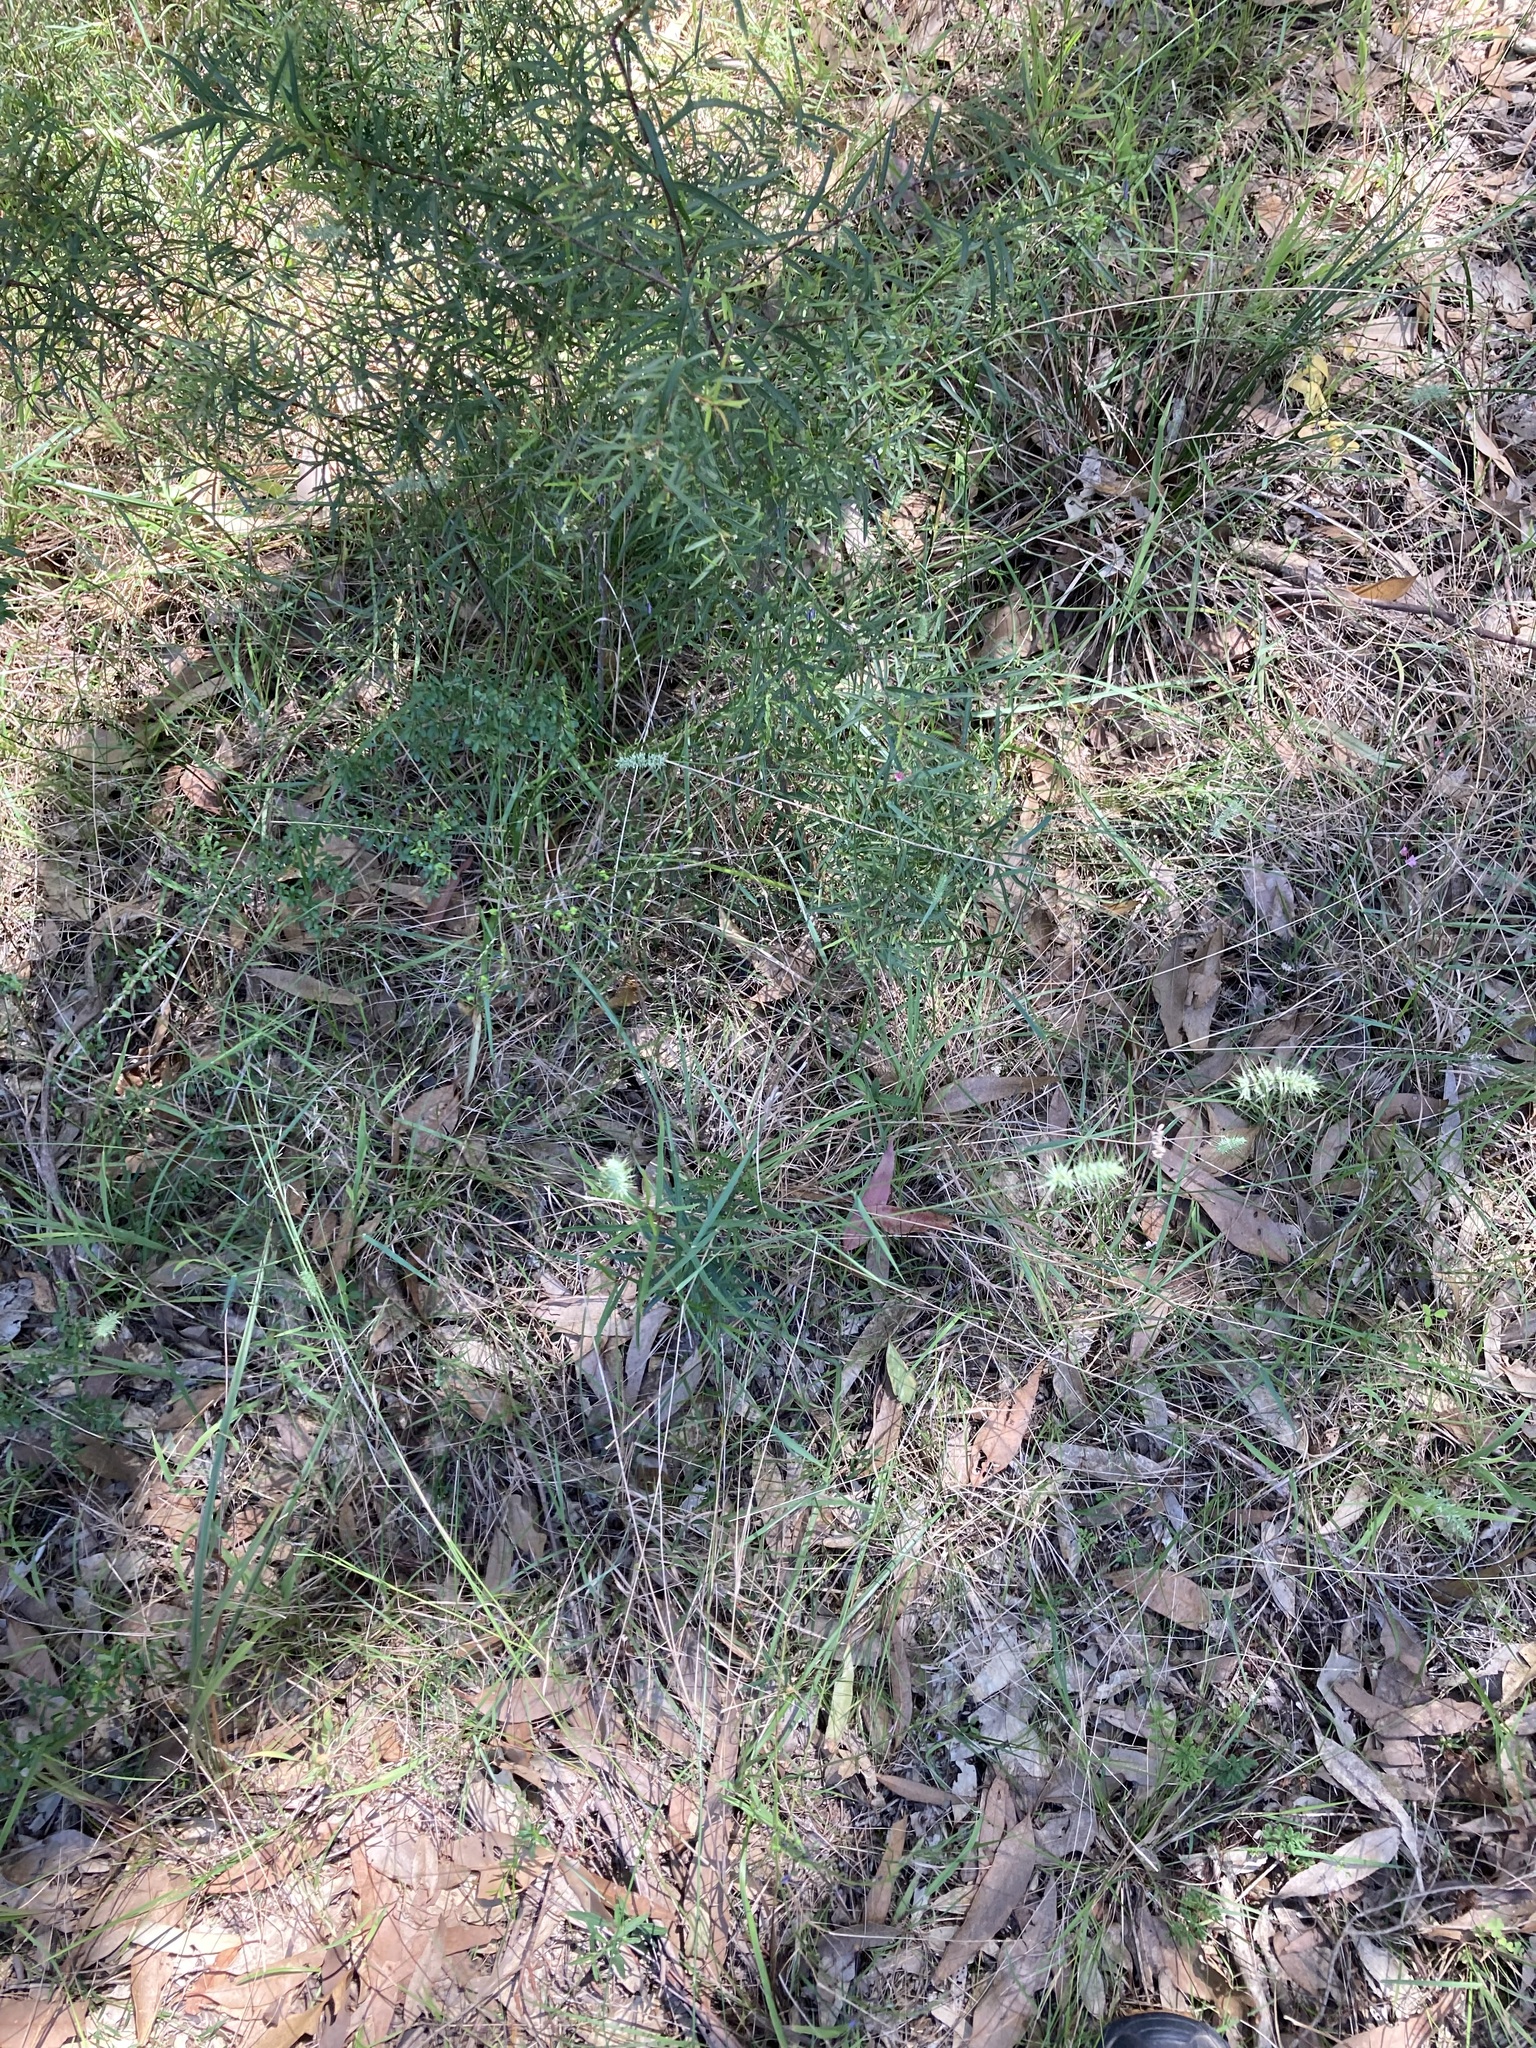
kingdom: Plantae
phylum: Tracheophyta
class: Liliopsida
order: Poales
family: Poaceae
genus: Echinopogon
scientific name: Echinopogon caespitosus
